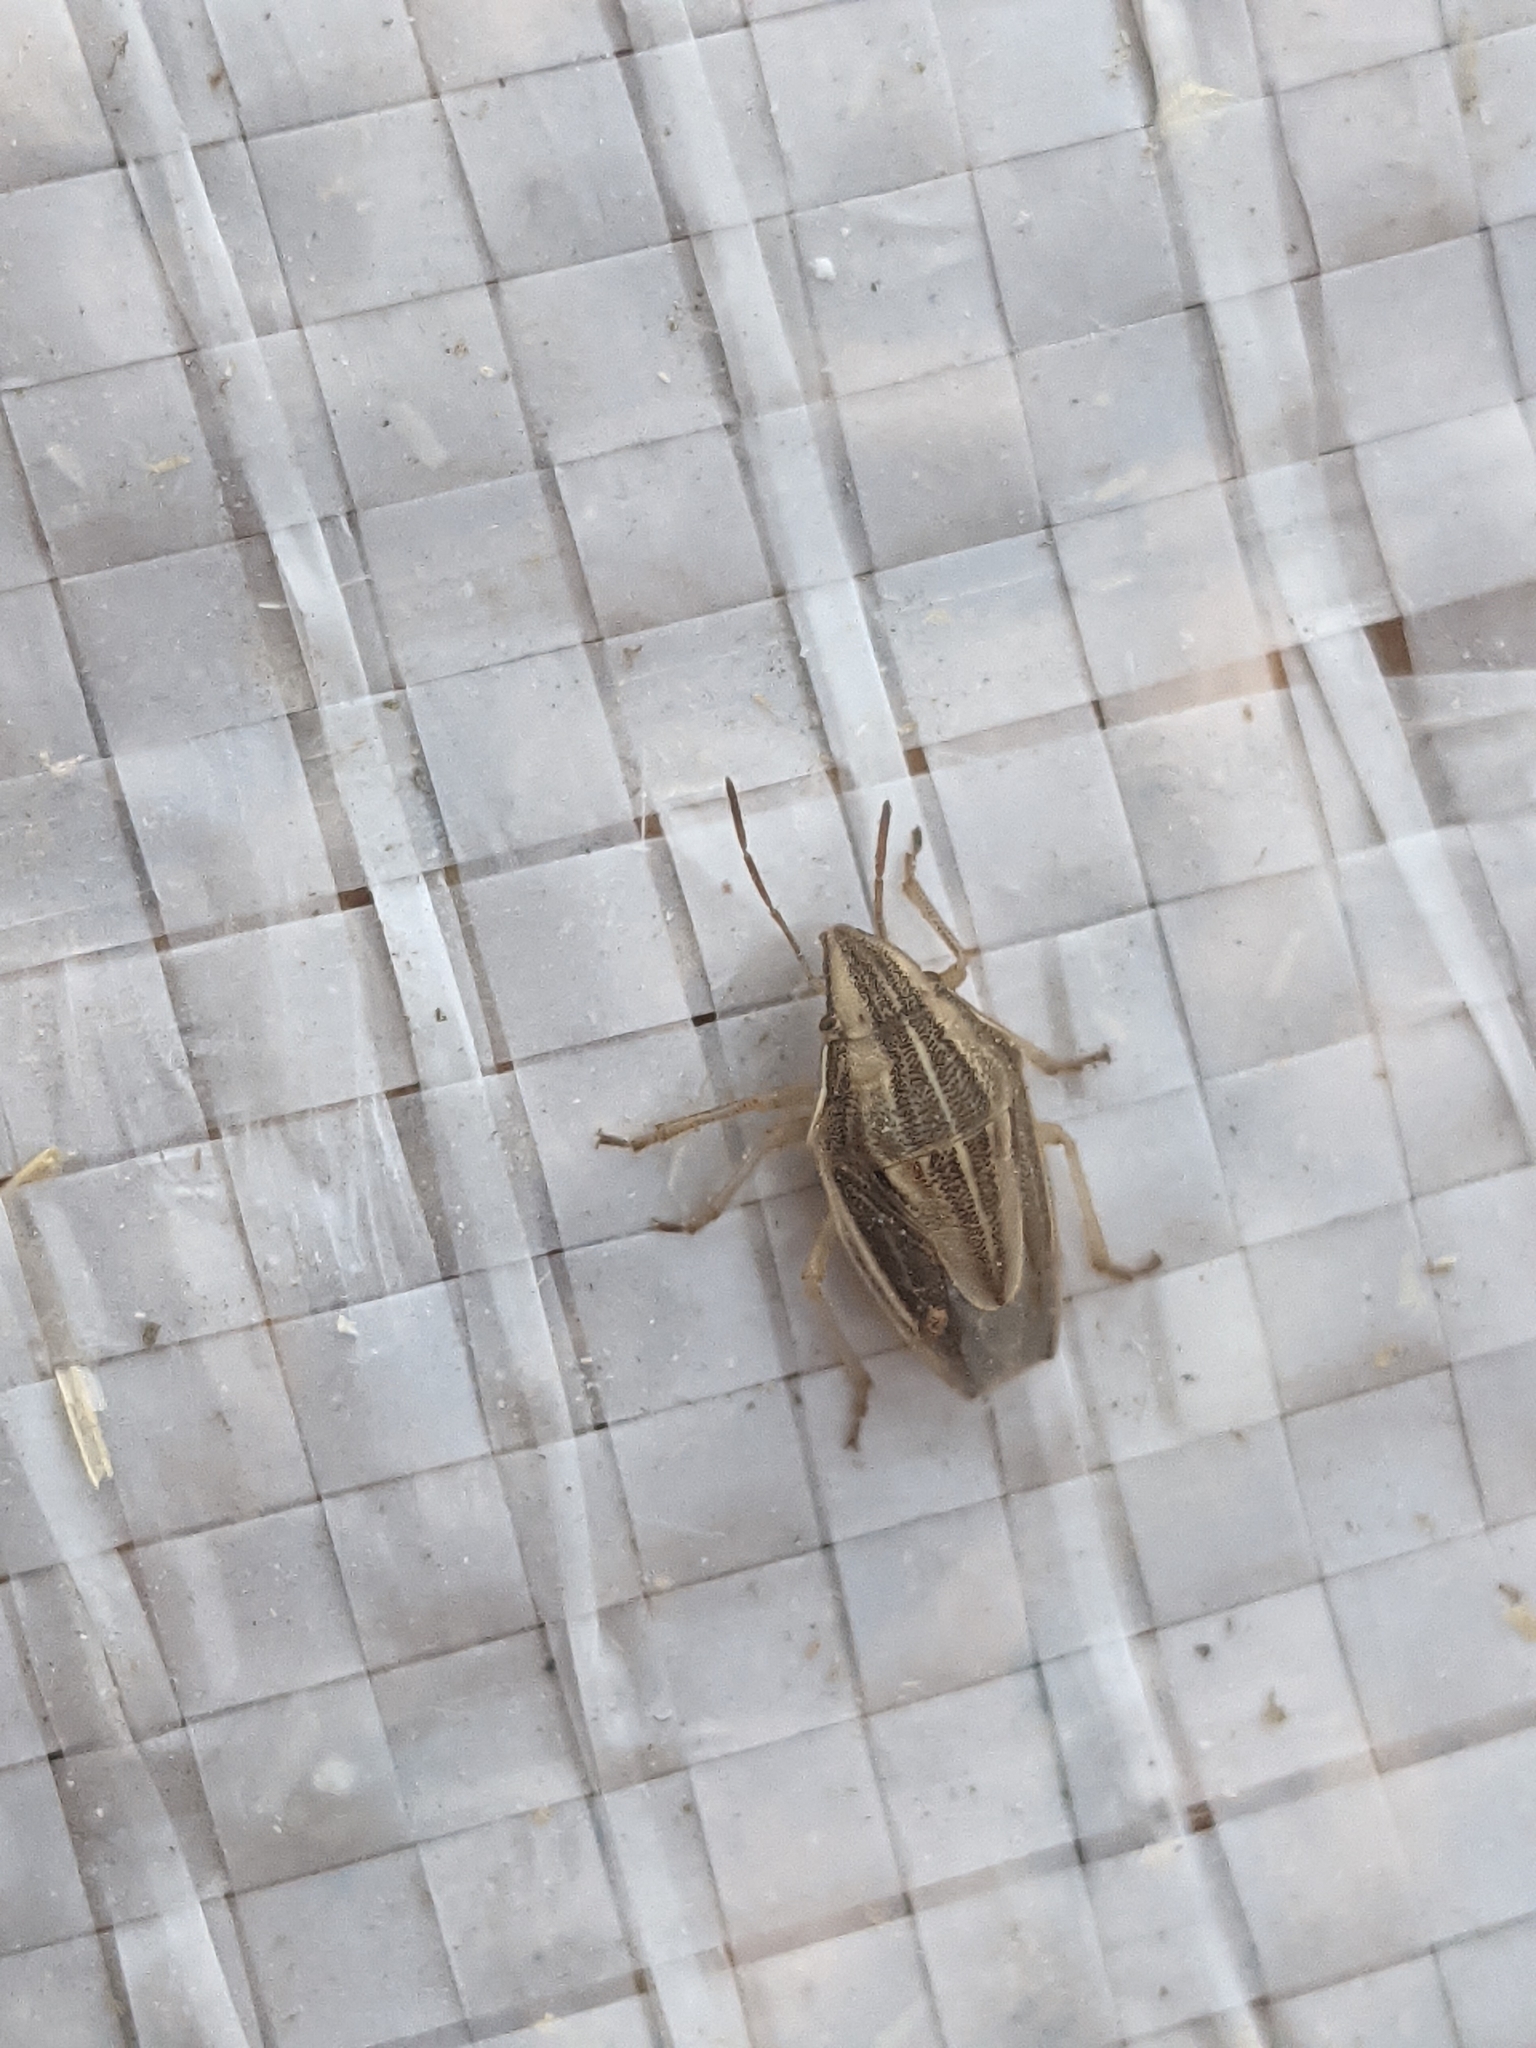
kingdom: Animalia
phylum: Arthropoda
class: Insecta
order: Hemiptera
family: Pentatomidae
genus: Aelia
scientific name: Aelia acuminata
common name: Bishop's mitre
